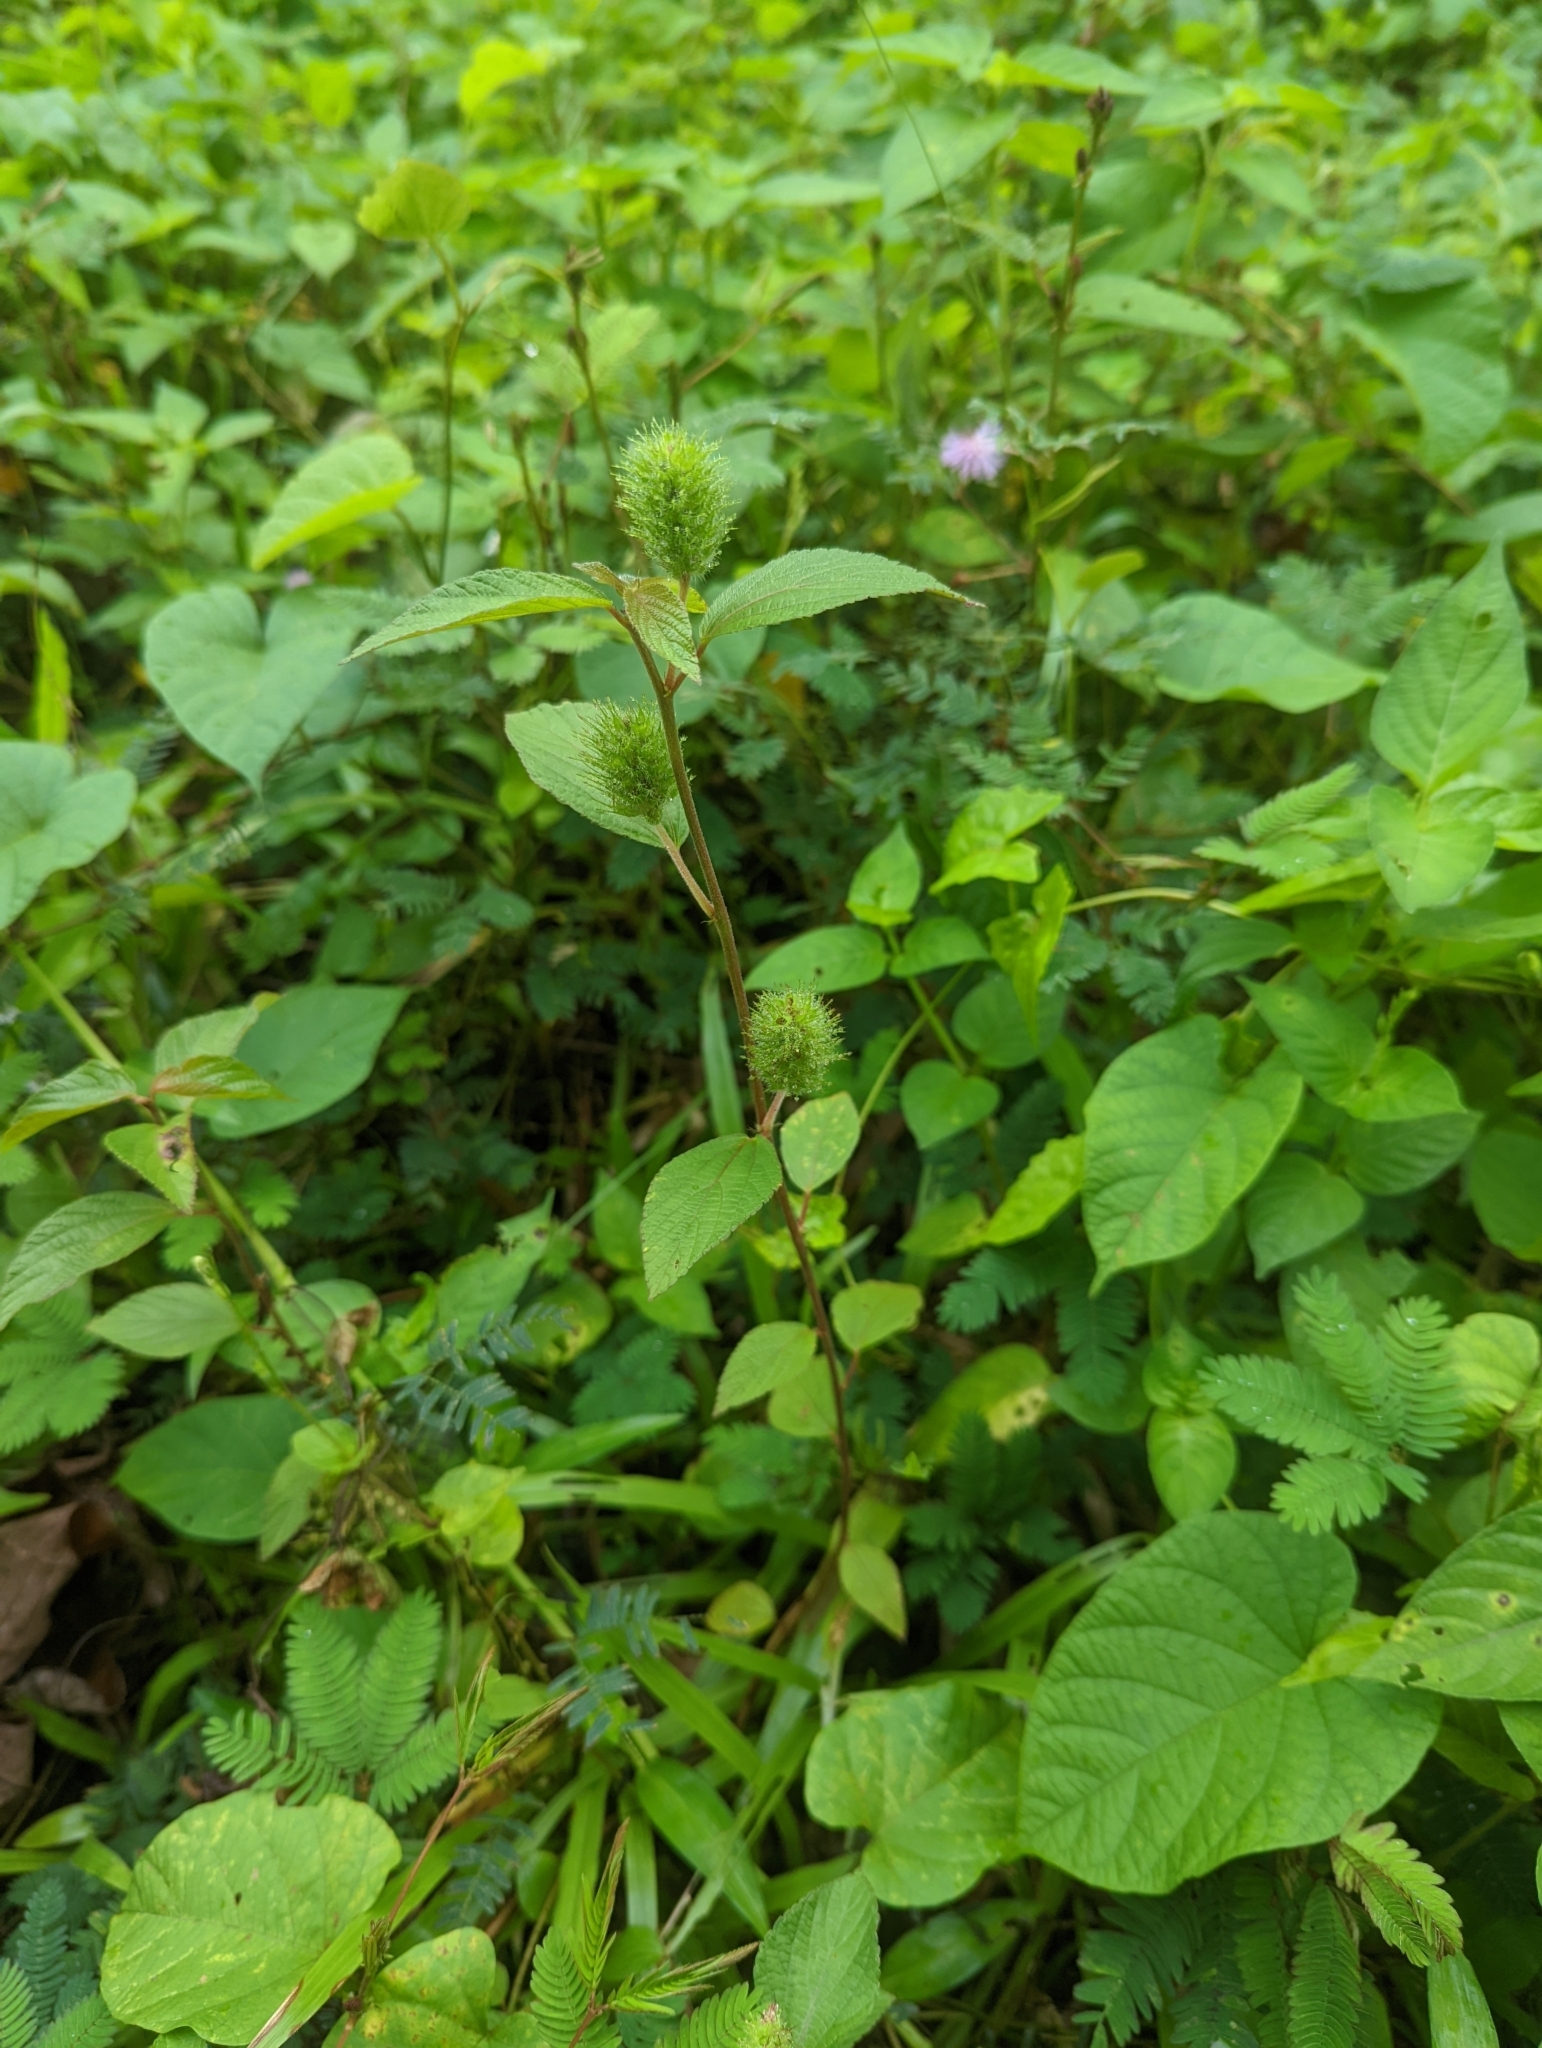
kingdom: Plantae
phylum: Tracheophyta
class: Magnoliopsida
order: Malpighiales
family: Euphorbiaceae
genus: Acalypha
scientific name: Acalypha arvensis
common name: Field copperleaf
